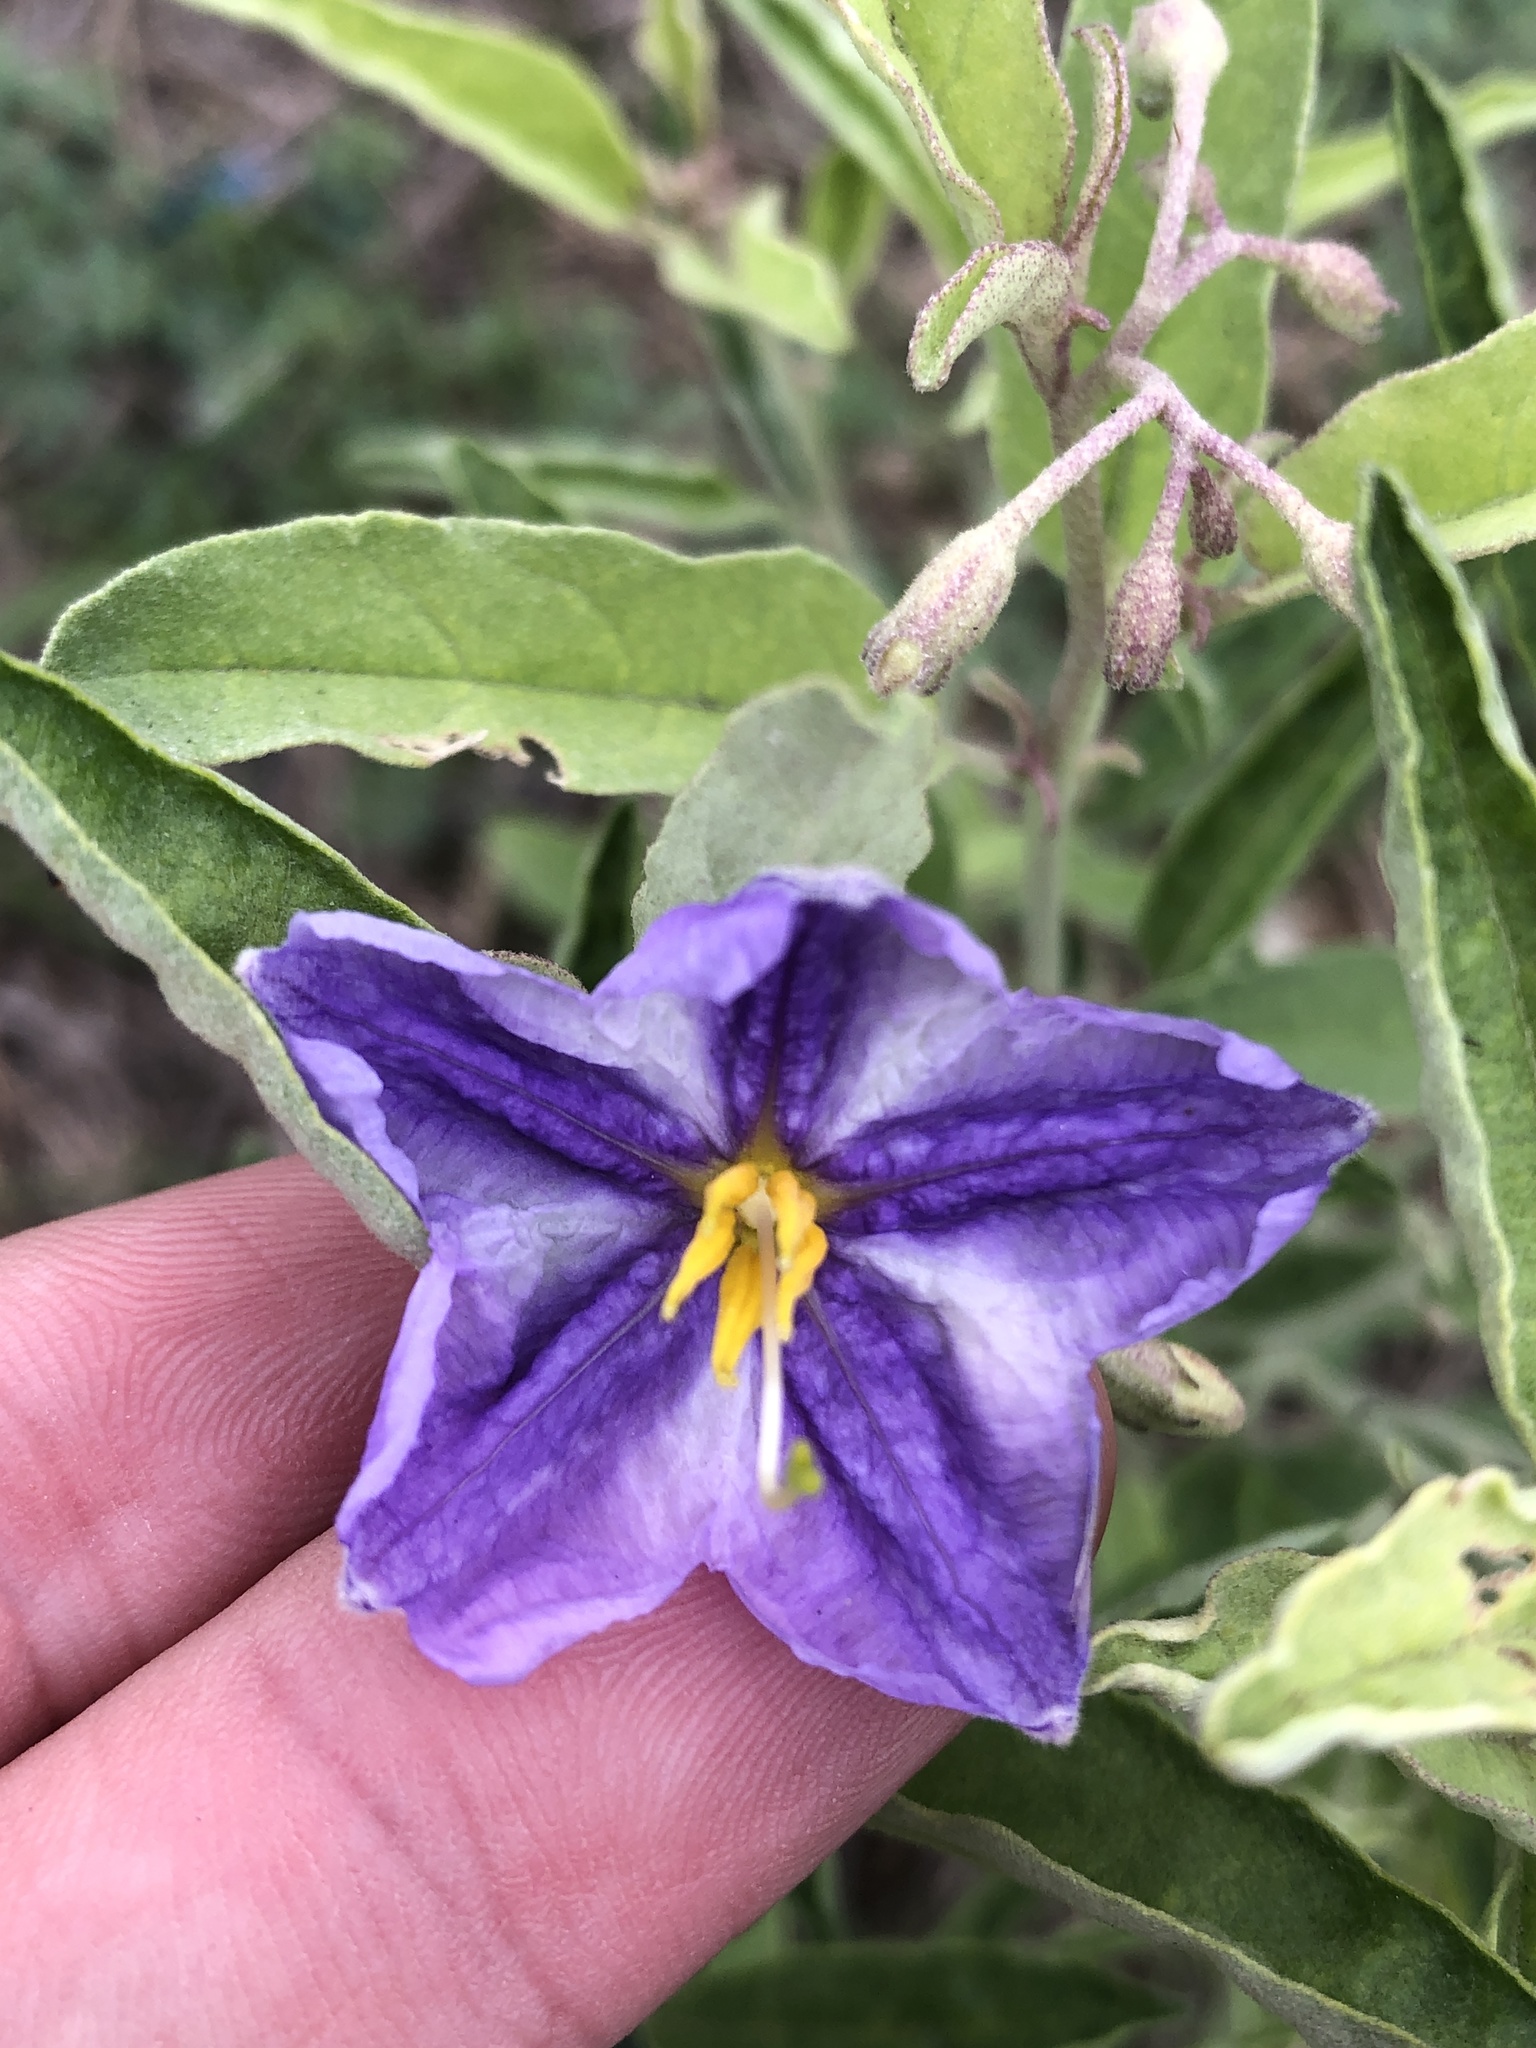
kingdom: Plantae
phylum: Tracheophyta
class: Magnoliopsida
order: Solanales
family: Solanaceae
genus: Solanum
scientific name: Solanum elaeagnifolium
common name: Silverleaf nightshade
